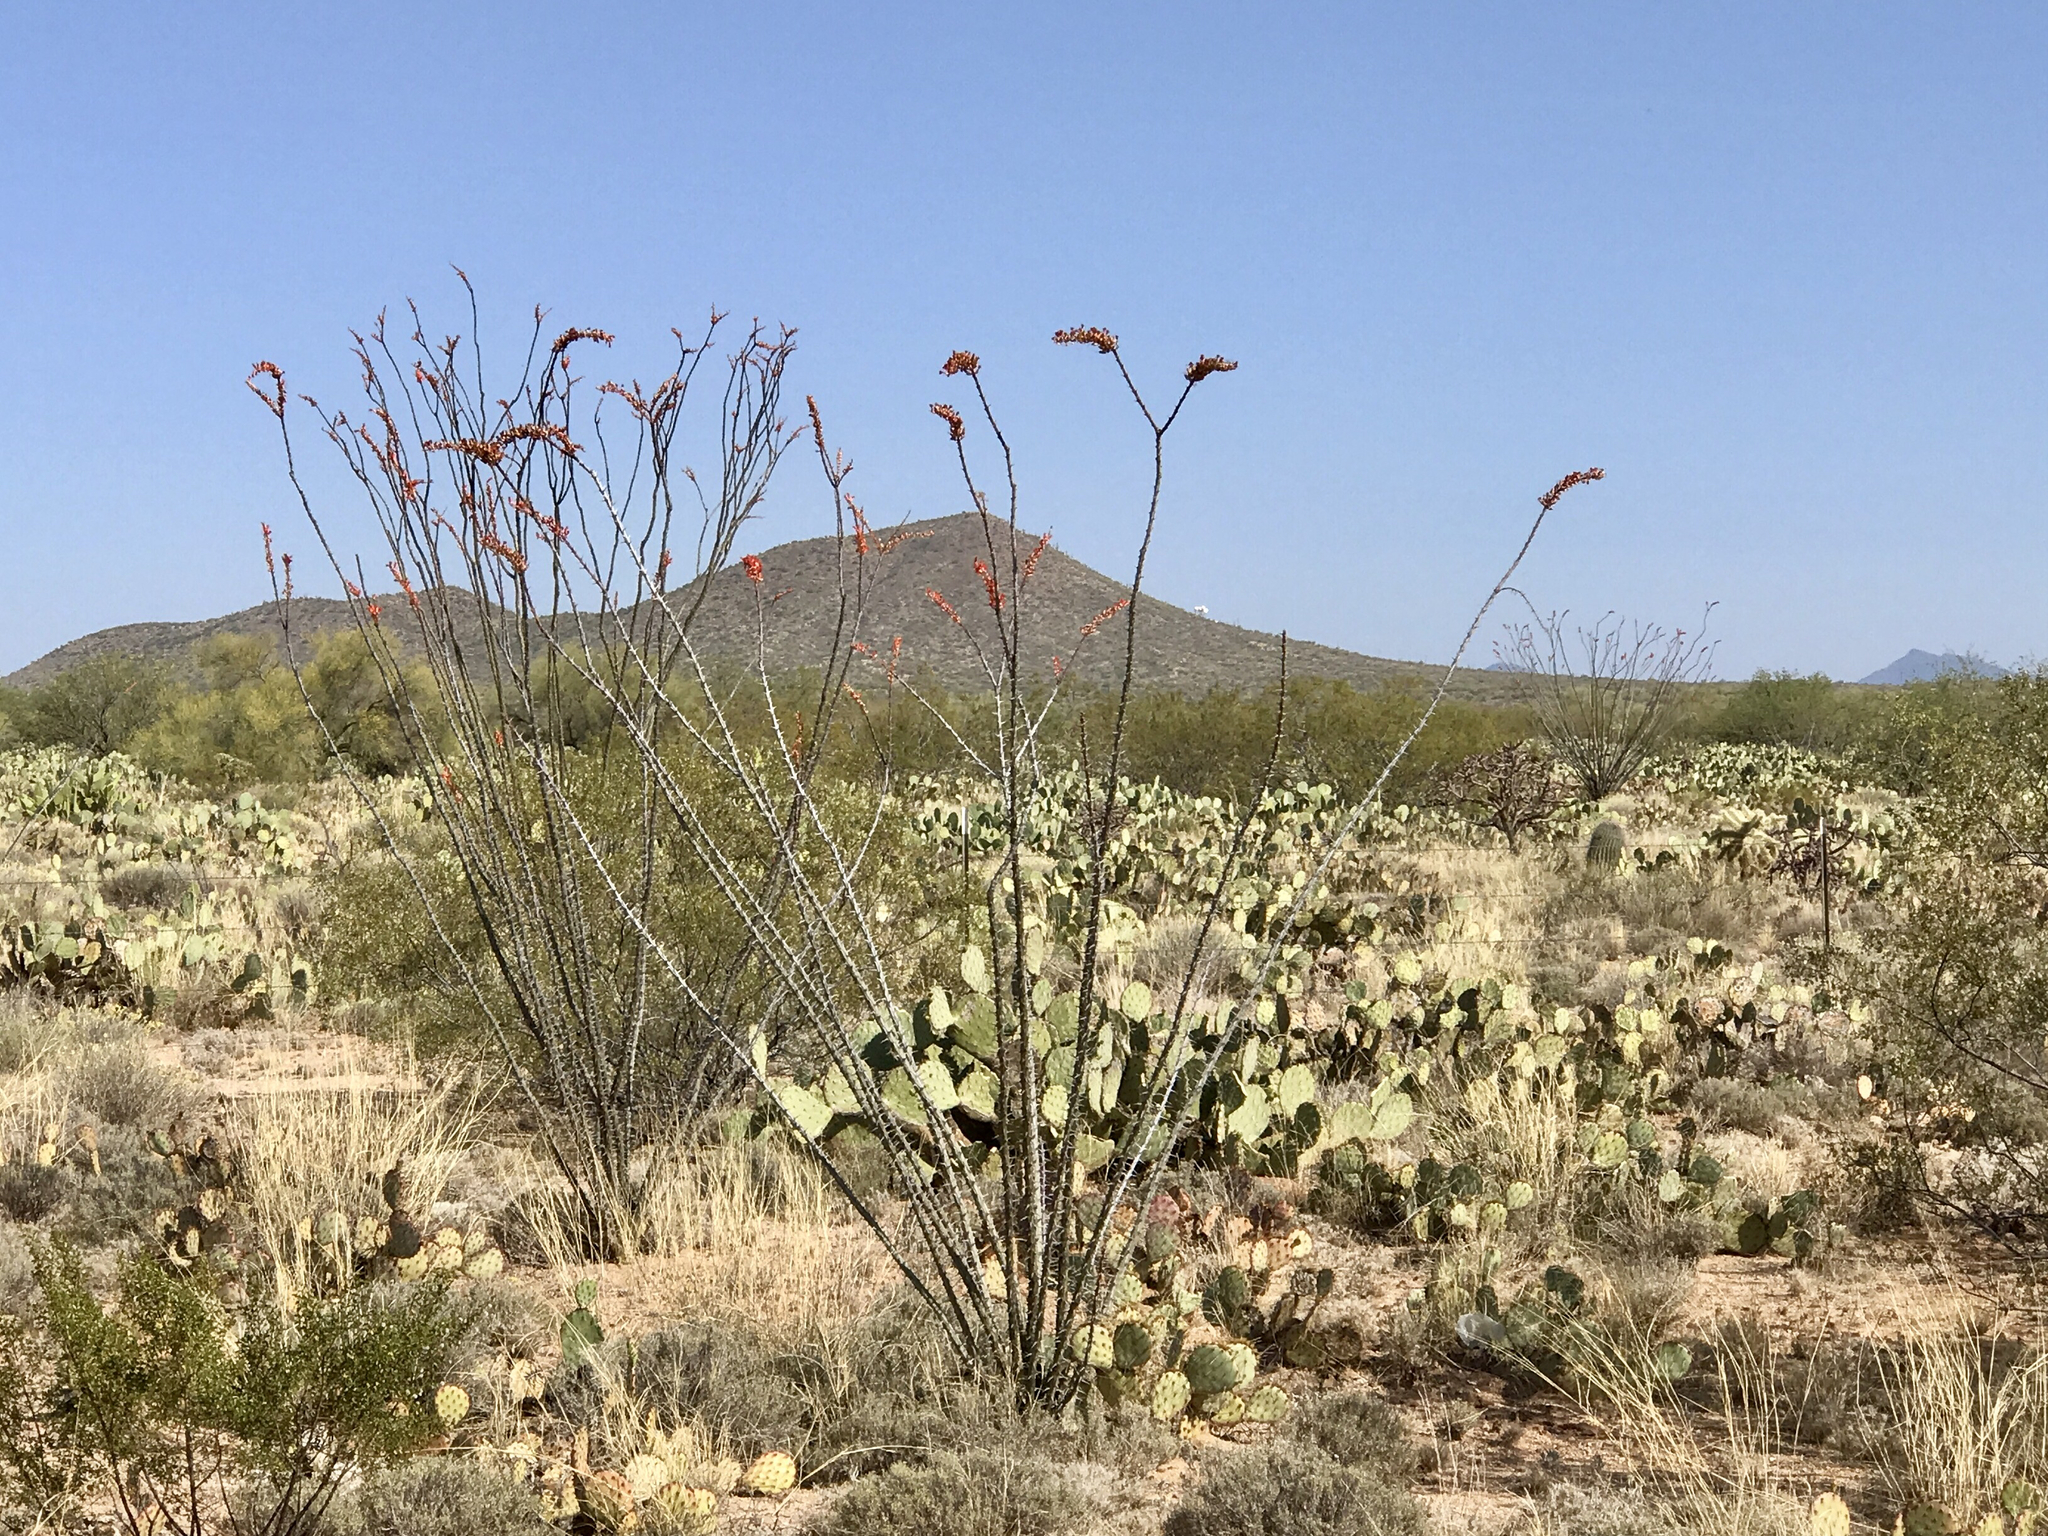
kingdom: Plantae
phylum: Tracheophyta
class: Magnoliopsida
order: Ericales
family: Fouquieriaceae
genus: Fouquieria
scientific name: Fouquieria splendens
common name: Vine-cactus
